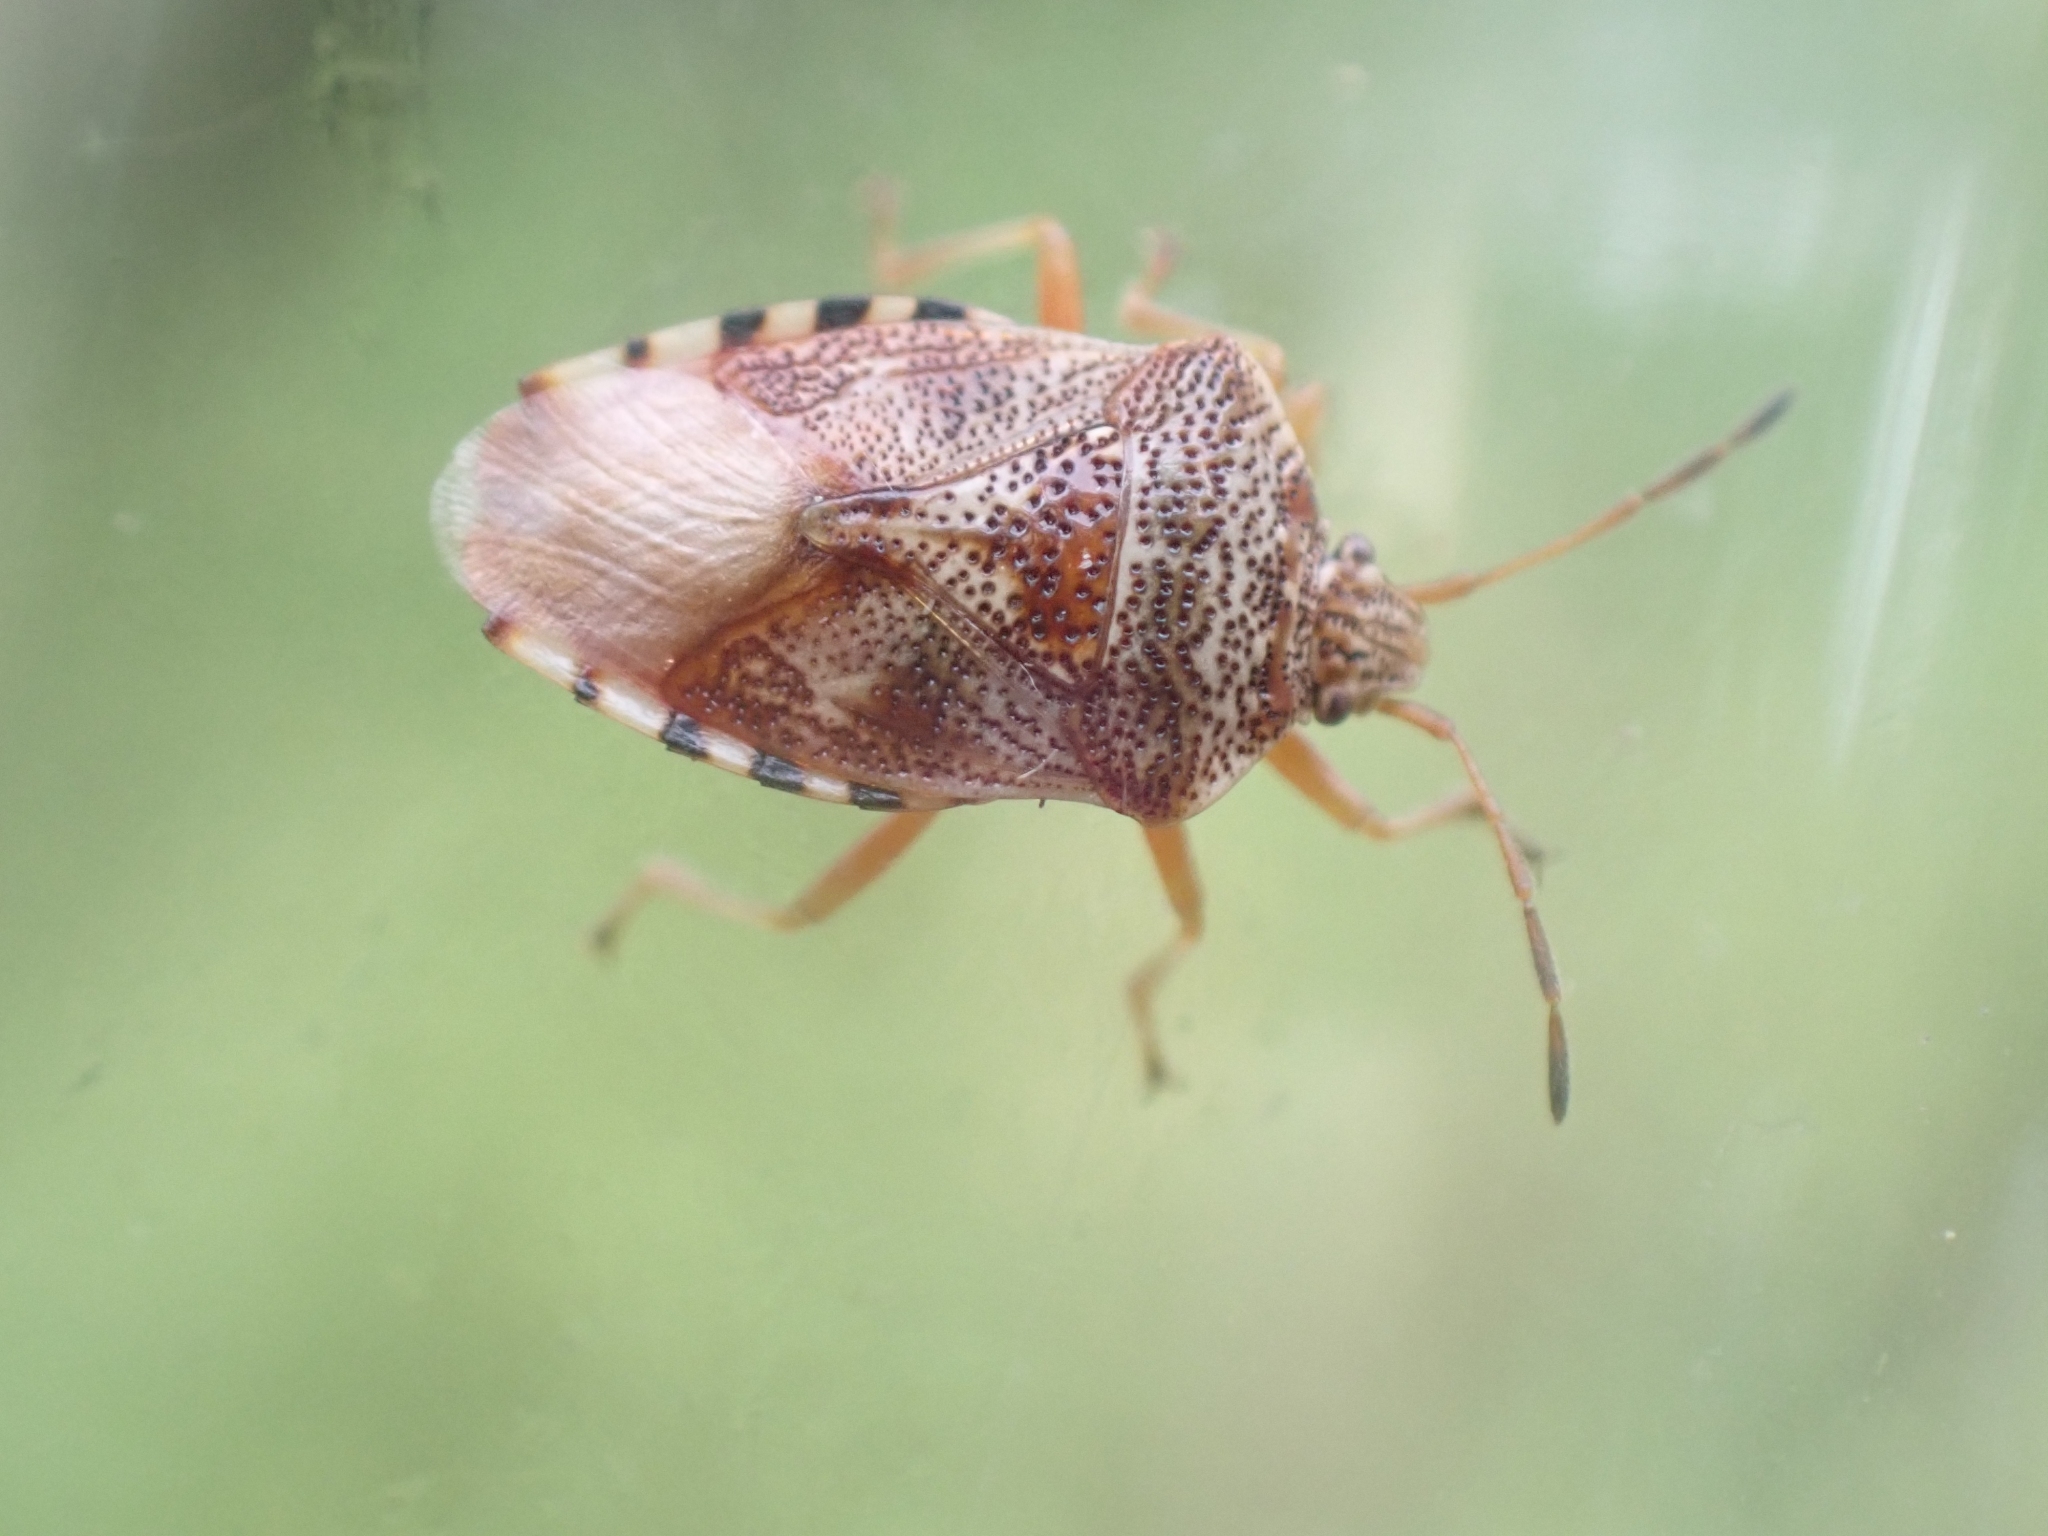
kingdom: Animalia
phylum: Arthropoda
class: Insecta
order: Hemiptera
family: Acanthosomatidae
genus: Elasmucha
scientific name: Elasmucha lateralis
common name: Shield bug
